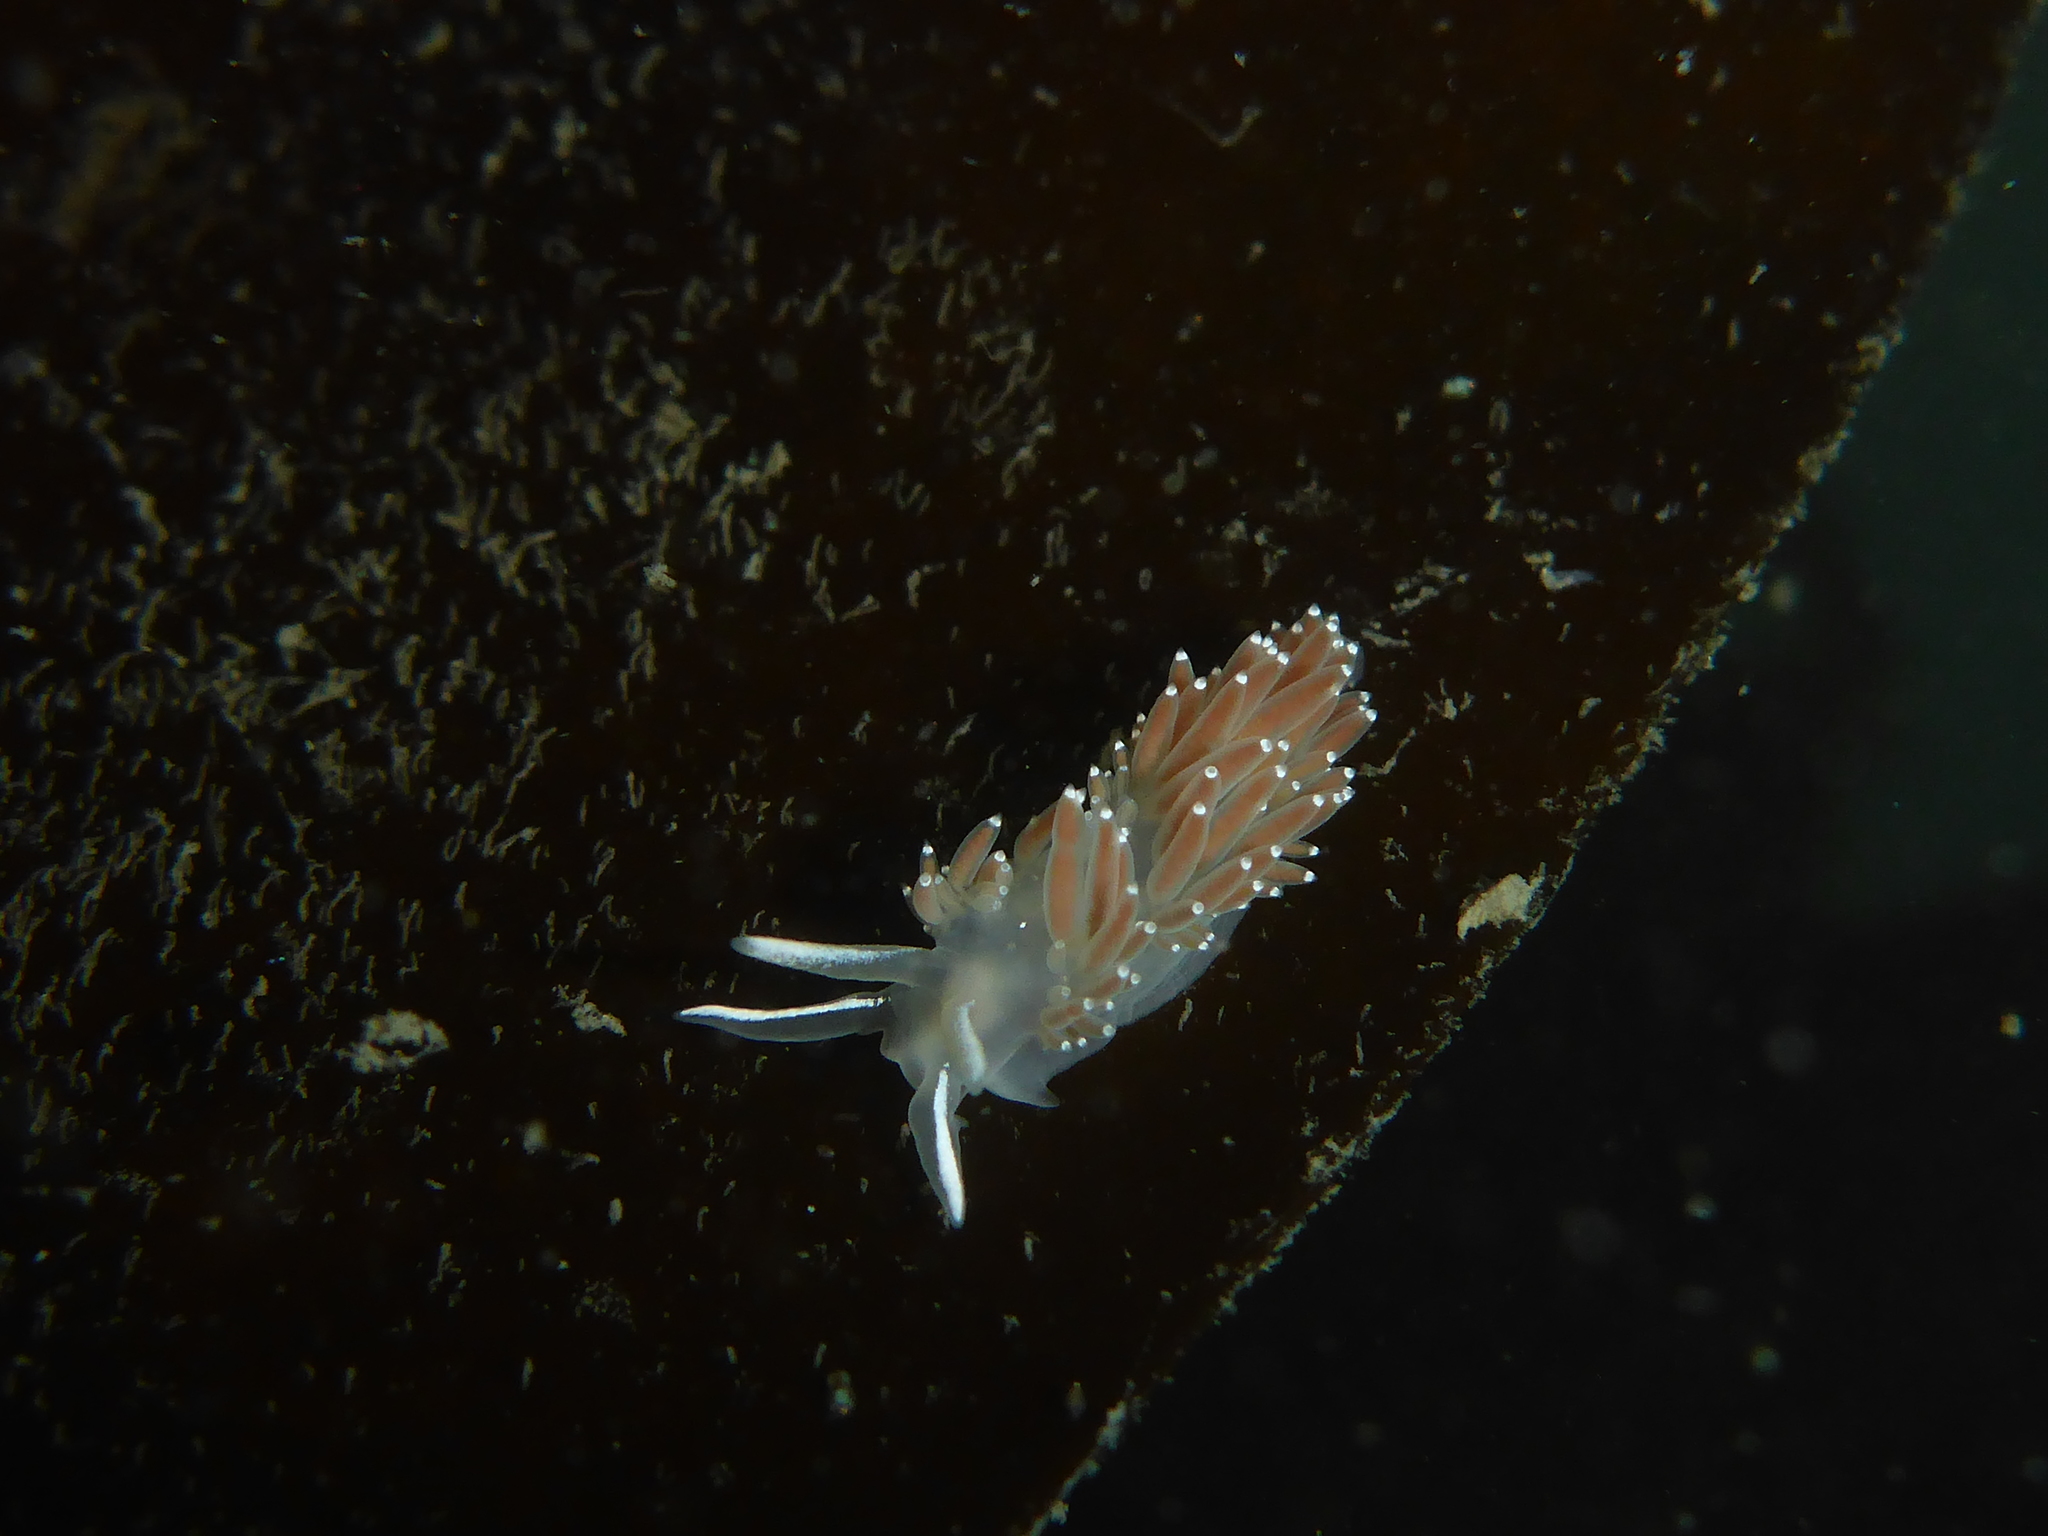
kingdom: Animalia
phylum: Mollusca
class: Gastropoda
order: Nudibranchia
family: Coryphellidae
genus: Coryphella
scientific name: Coryphella verrucosa
